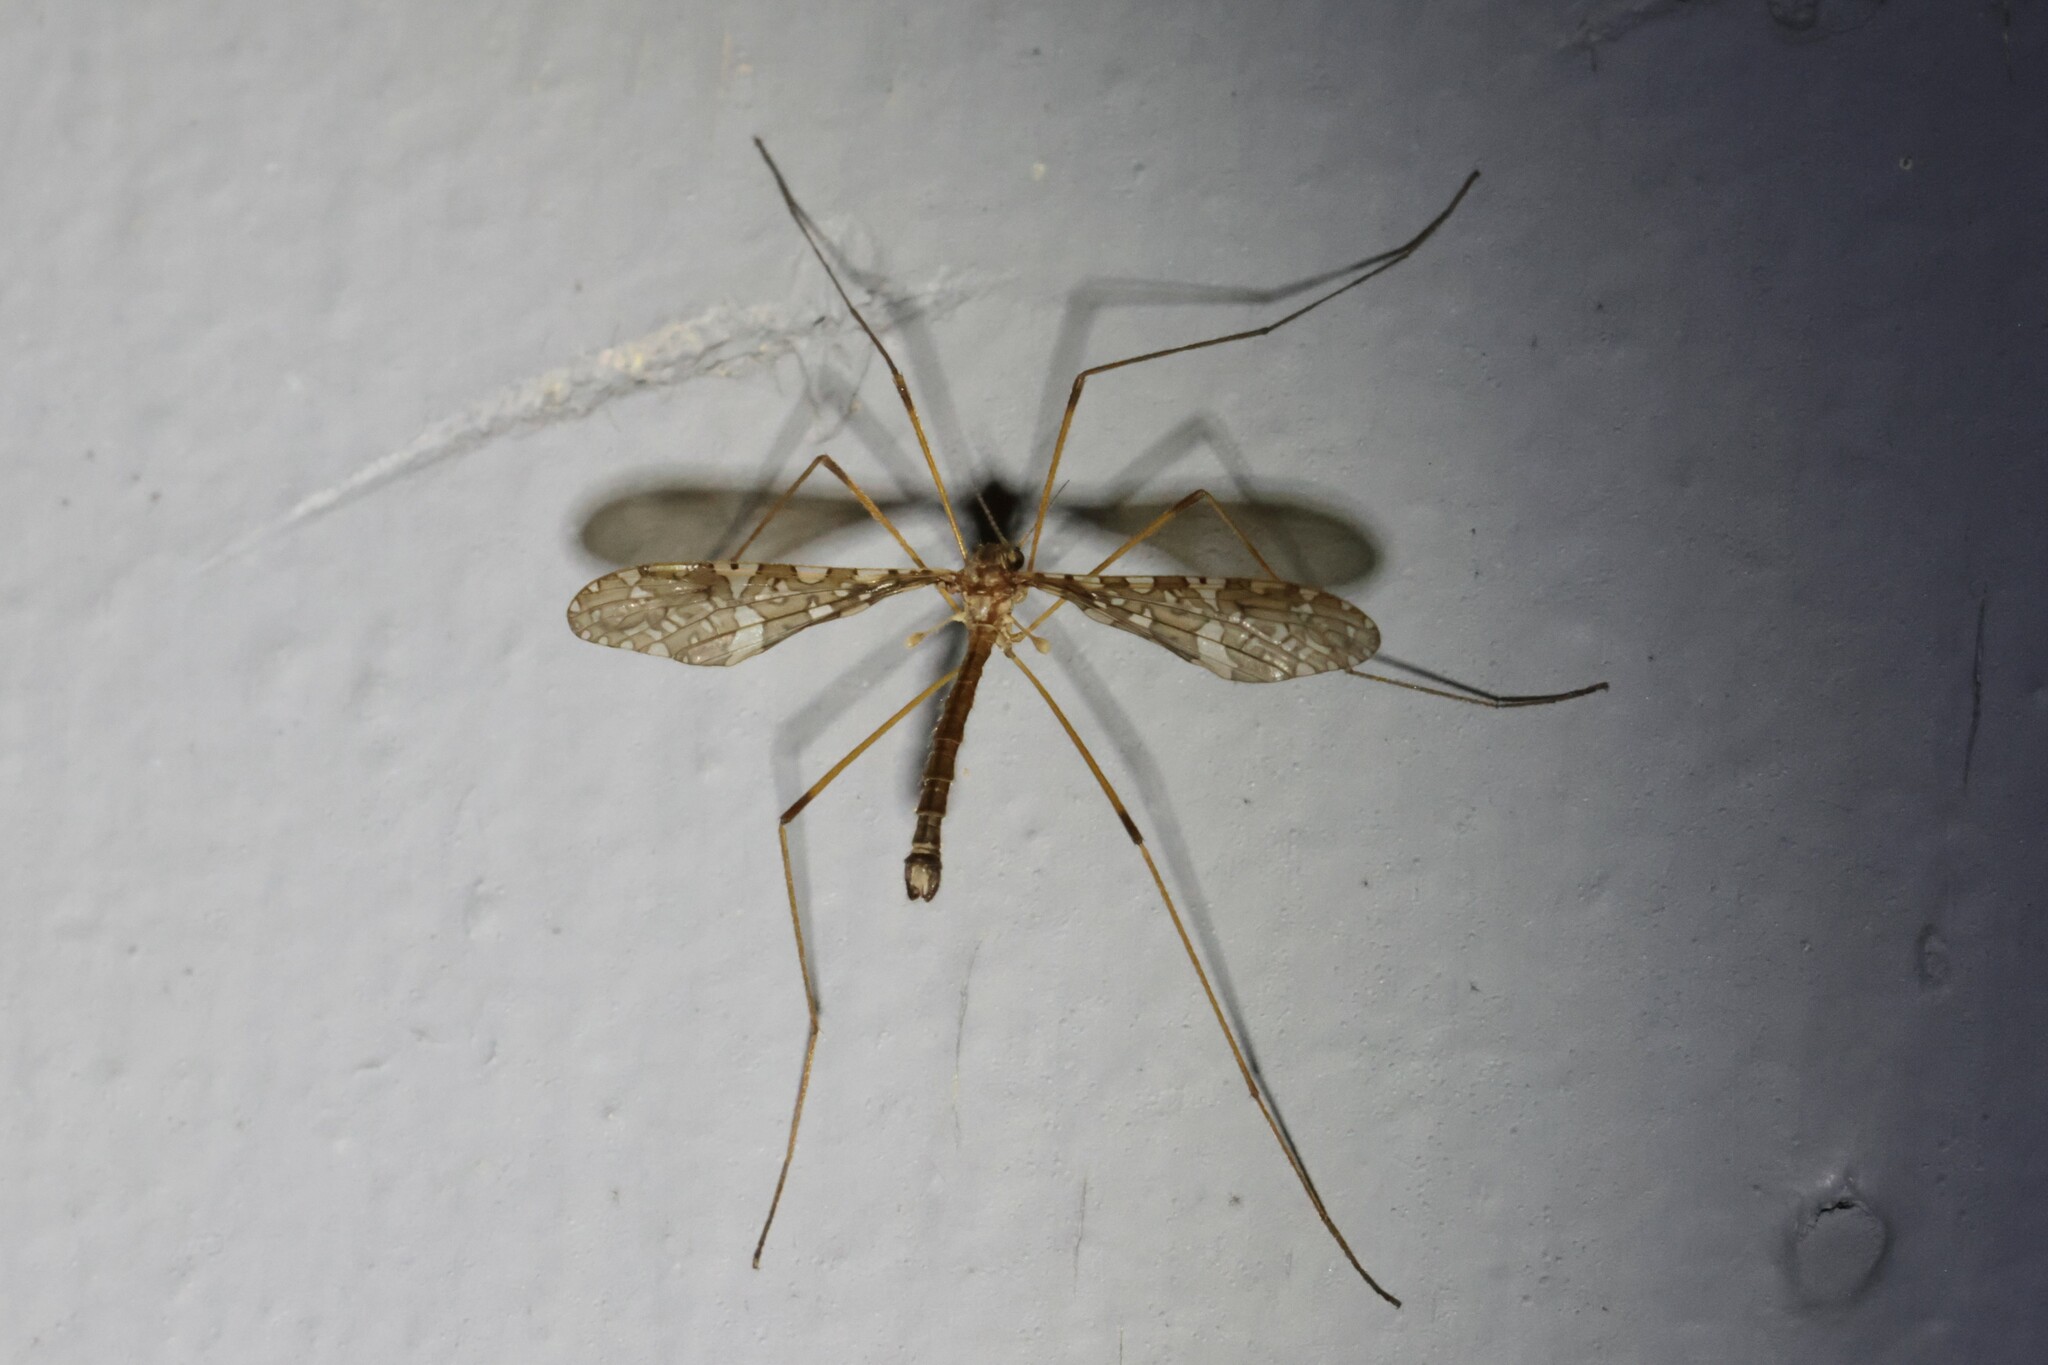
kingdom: Animalia
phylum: Arthropoda
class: Insecta
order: Diptera
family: Limoniidae
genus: Epiphragma
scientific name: Epiphragma fasciapenne
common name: Band-winged crane fly
